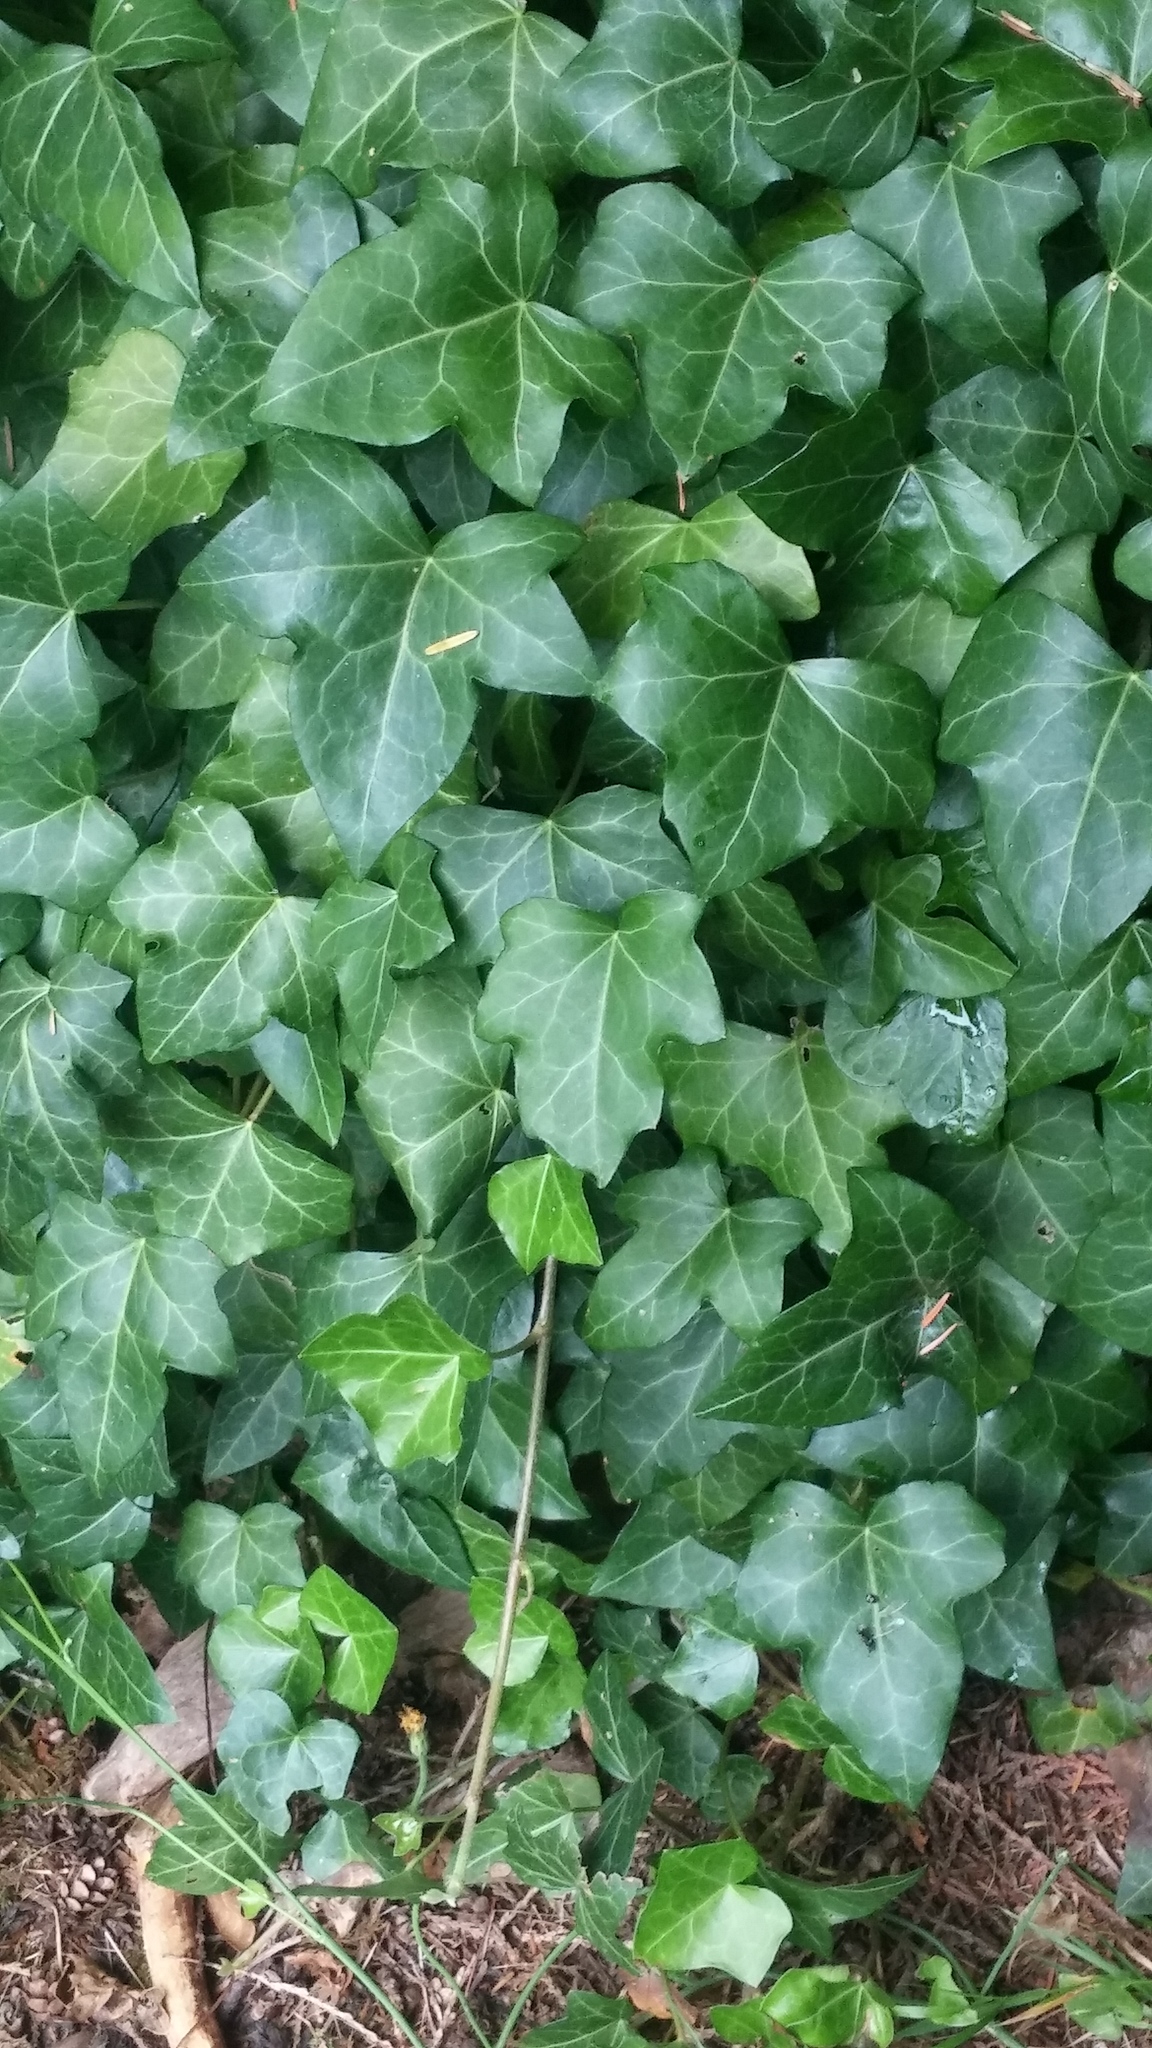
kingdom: Plantae
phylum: Tracheophyta
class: Magnoliopsida
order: Apiales
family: Araliaceae
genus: Hedera
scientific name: Hedera helix
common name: Ivy
